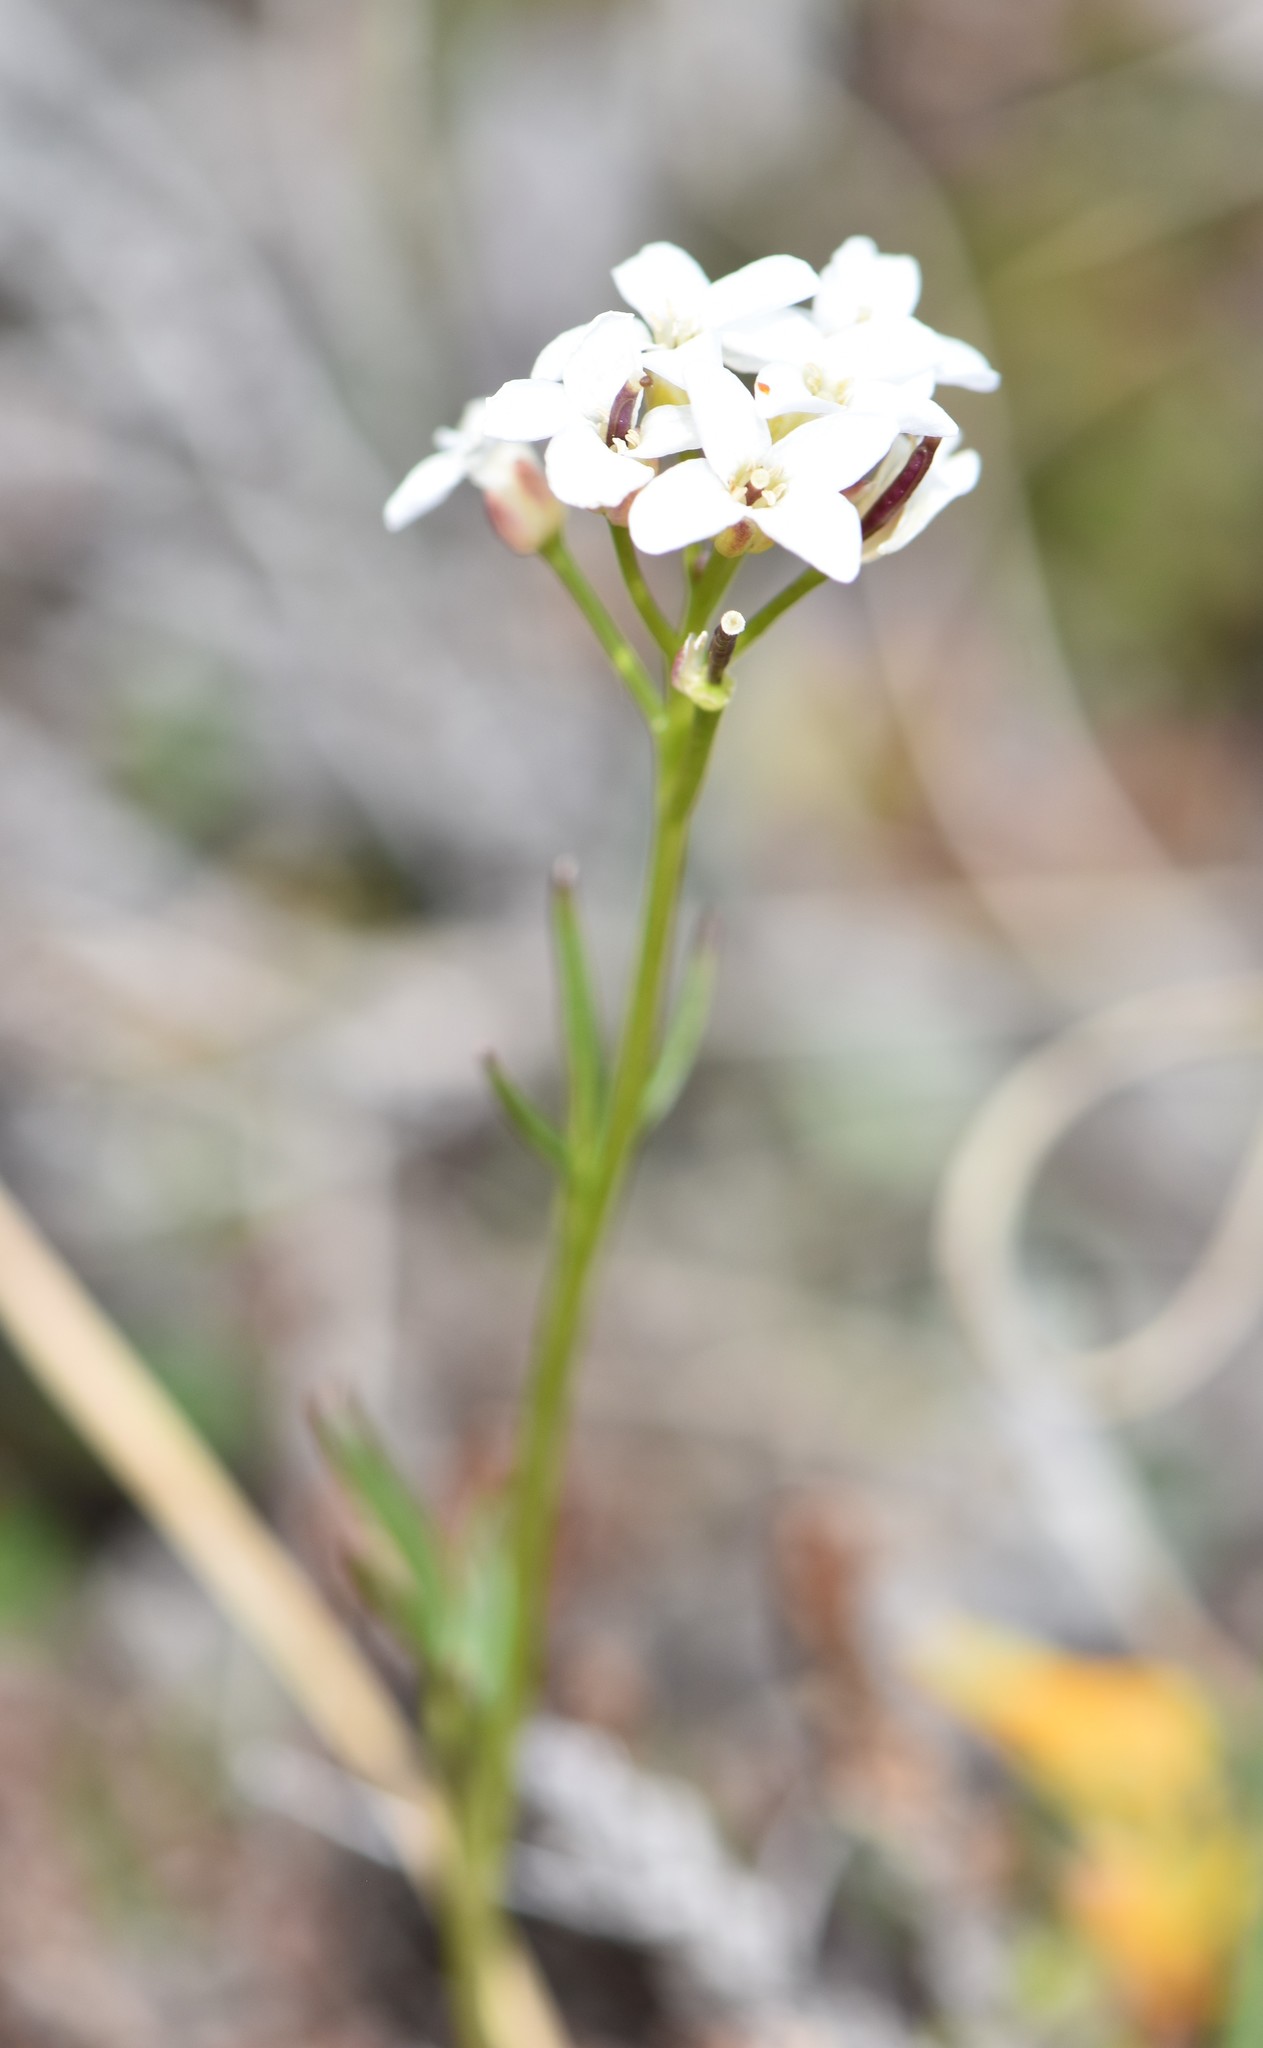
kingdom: Plantae
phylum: Tracheophyta
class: Magnoliopsida
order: Brassicales
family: Brassicaceae
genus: Cardamine
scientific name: Cardamine digitata
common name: Richardson's bittercress
